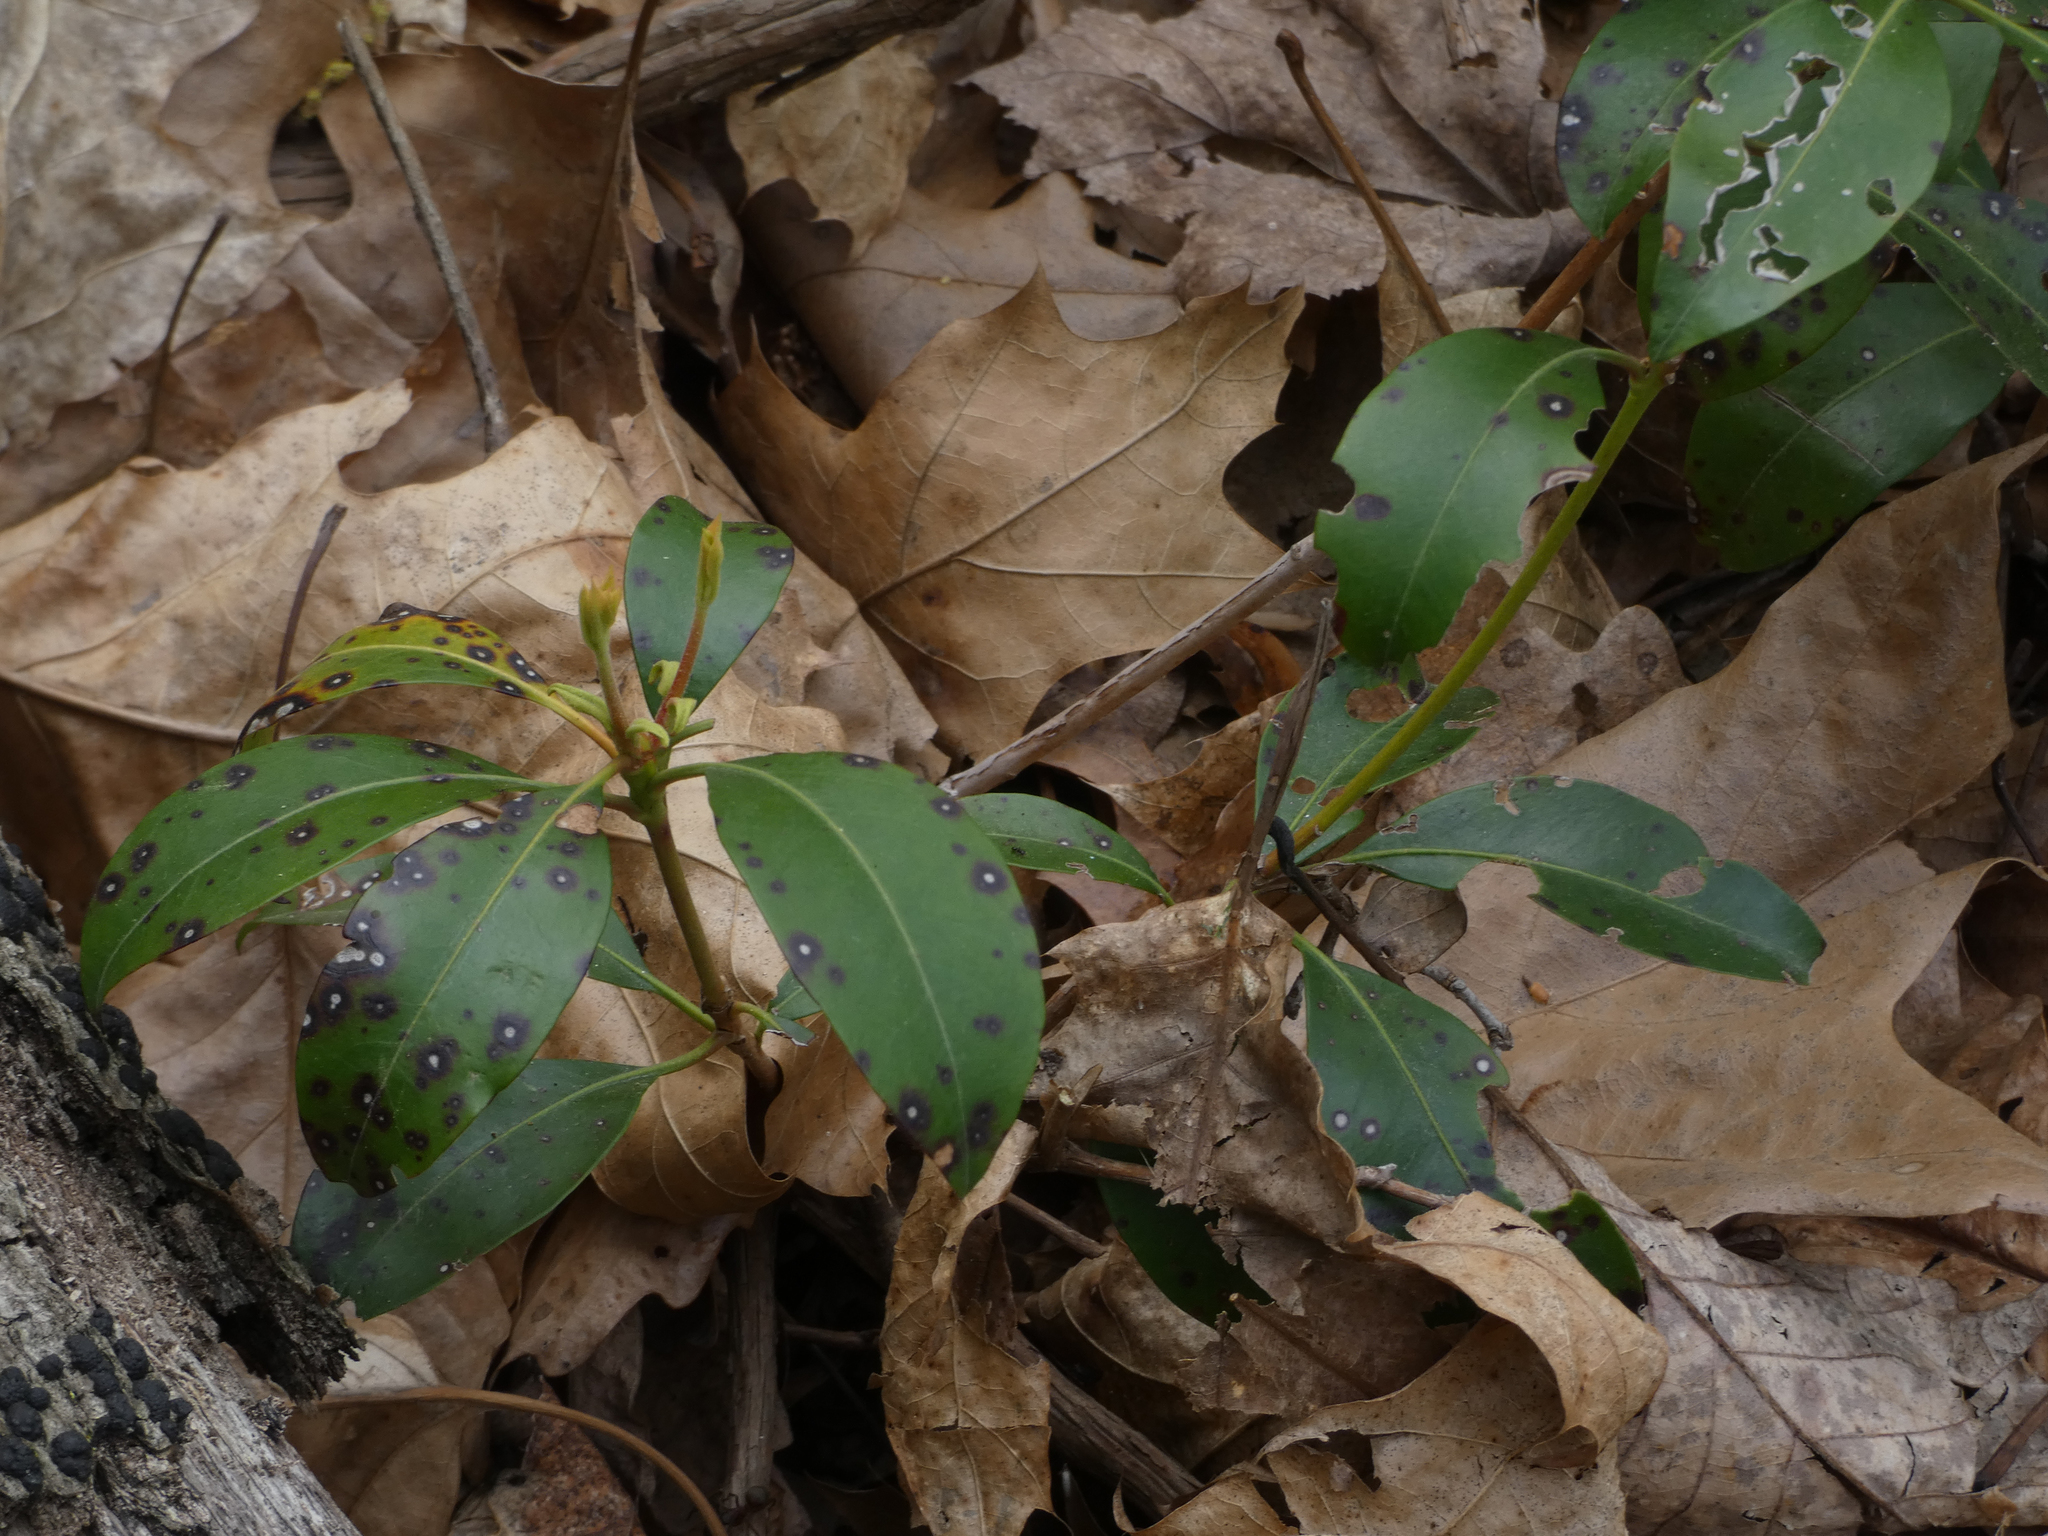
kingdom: Plantae
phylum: Tracheophyta
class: Magnoliopsida
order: Ericales
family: Ericaceae
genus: Kalmia
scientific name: Kalmia latifolia
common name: Mountain-laurel
